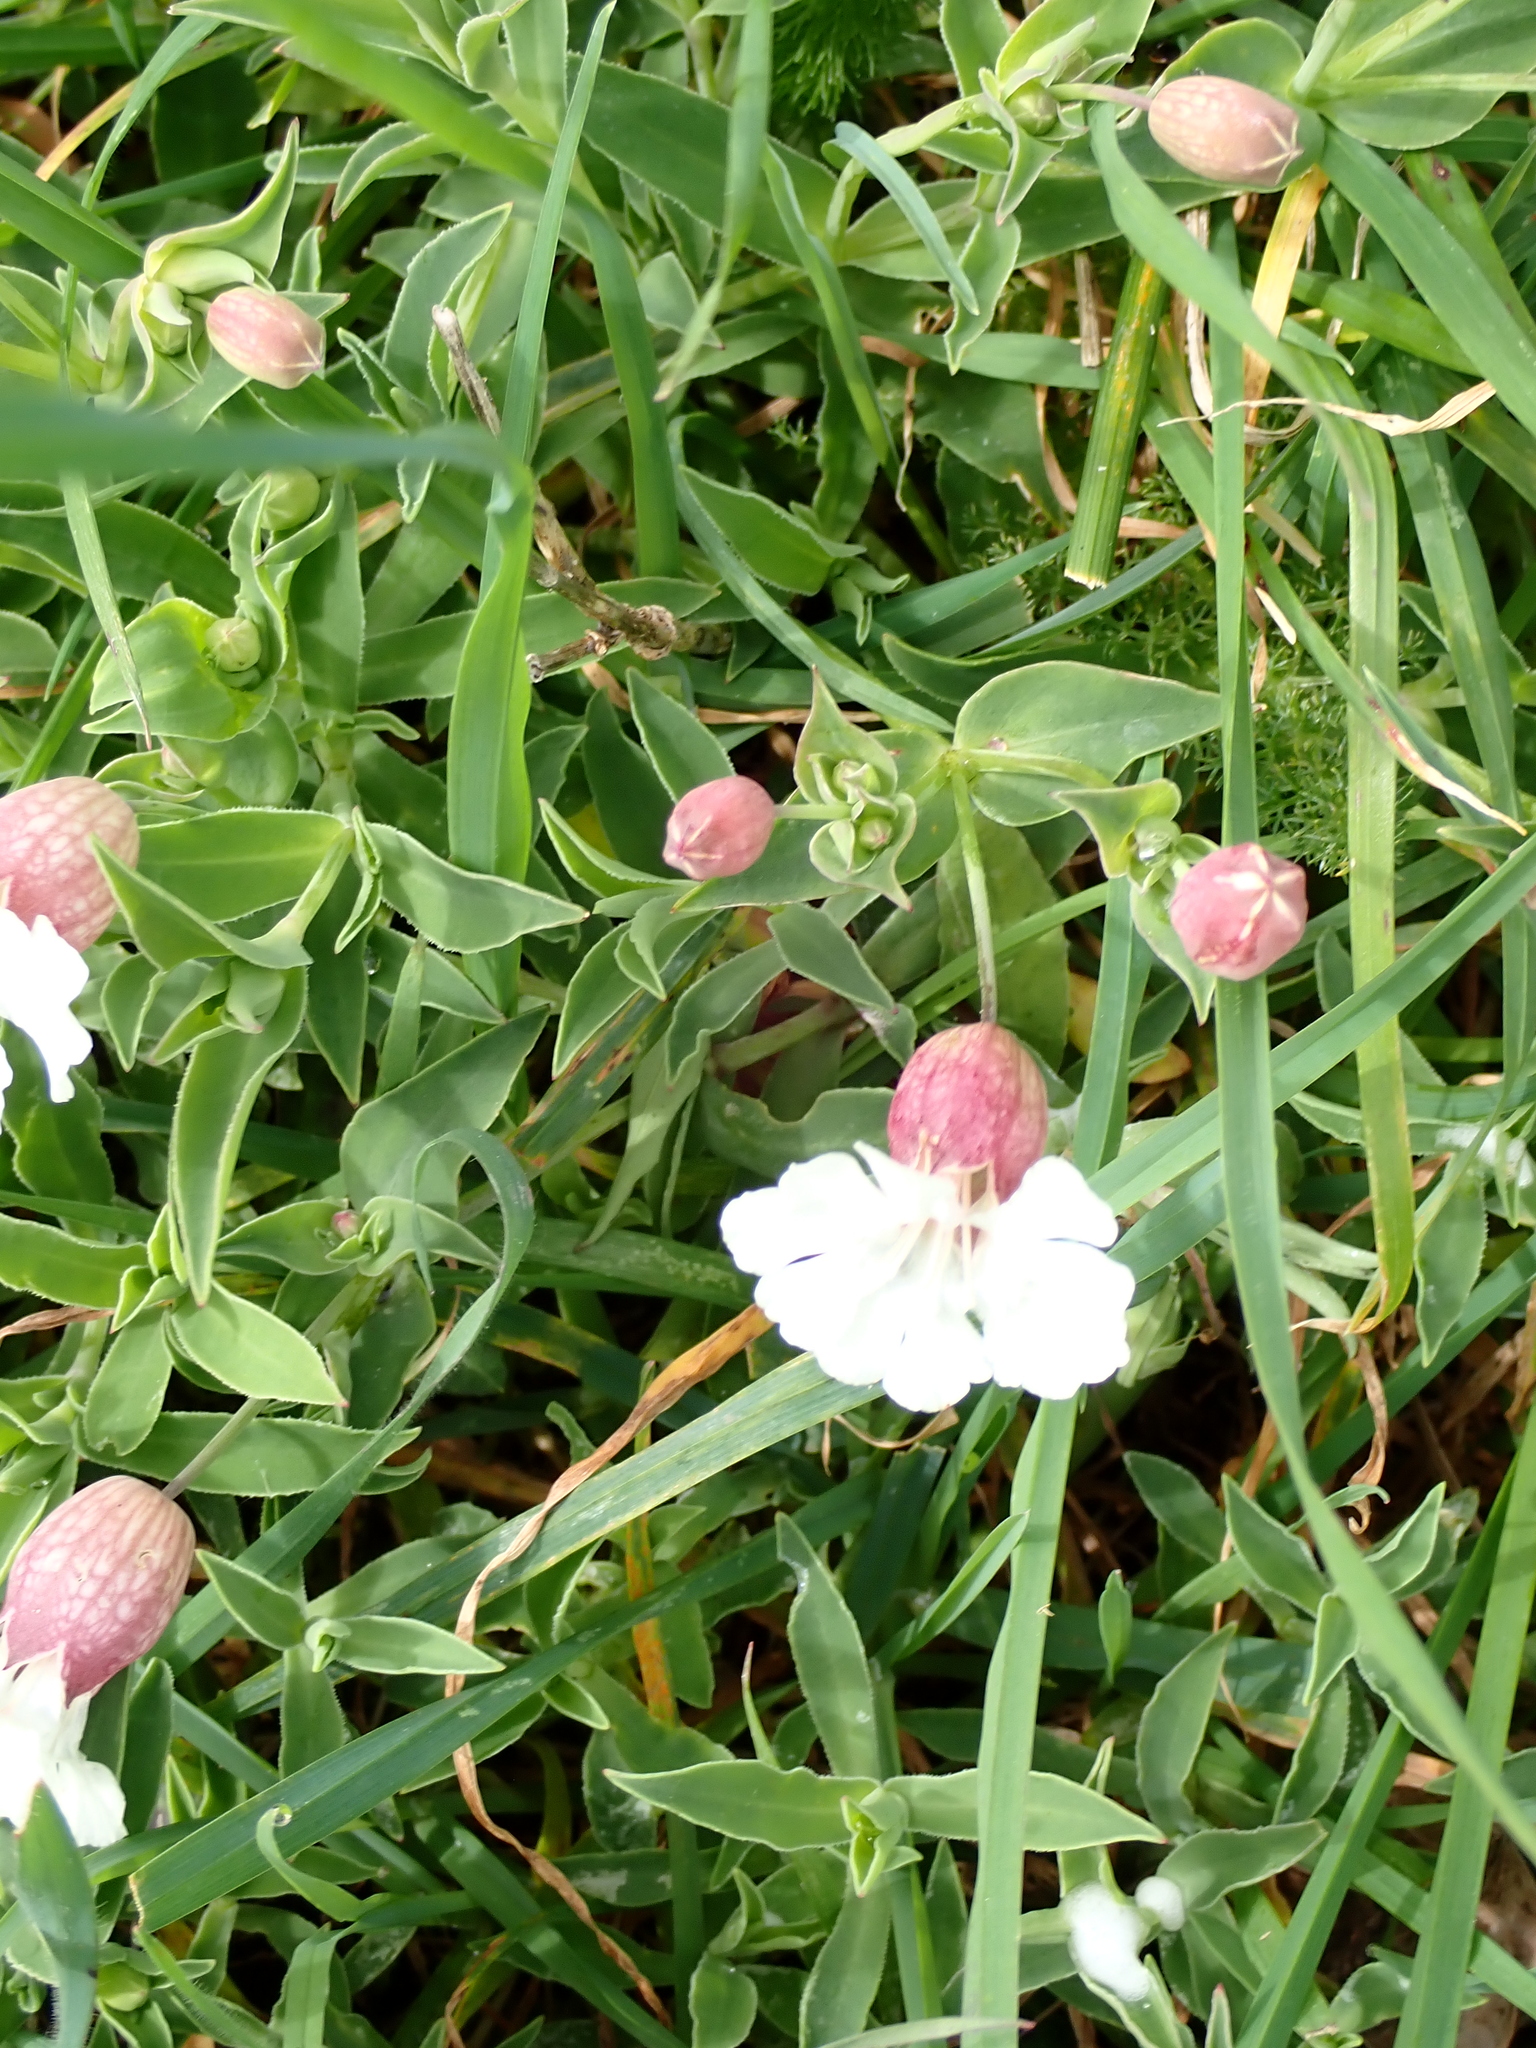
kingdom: Plantae
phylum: Tracheophyta
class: Magnoliopsida
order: Caryophyllales
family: Caryophyllaceae
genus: Silene
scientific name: Silene uniflora
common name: Sea campion
